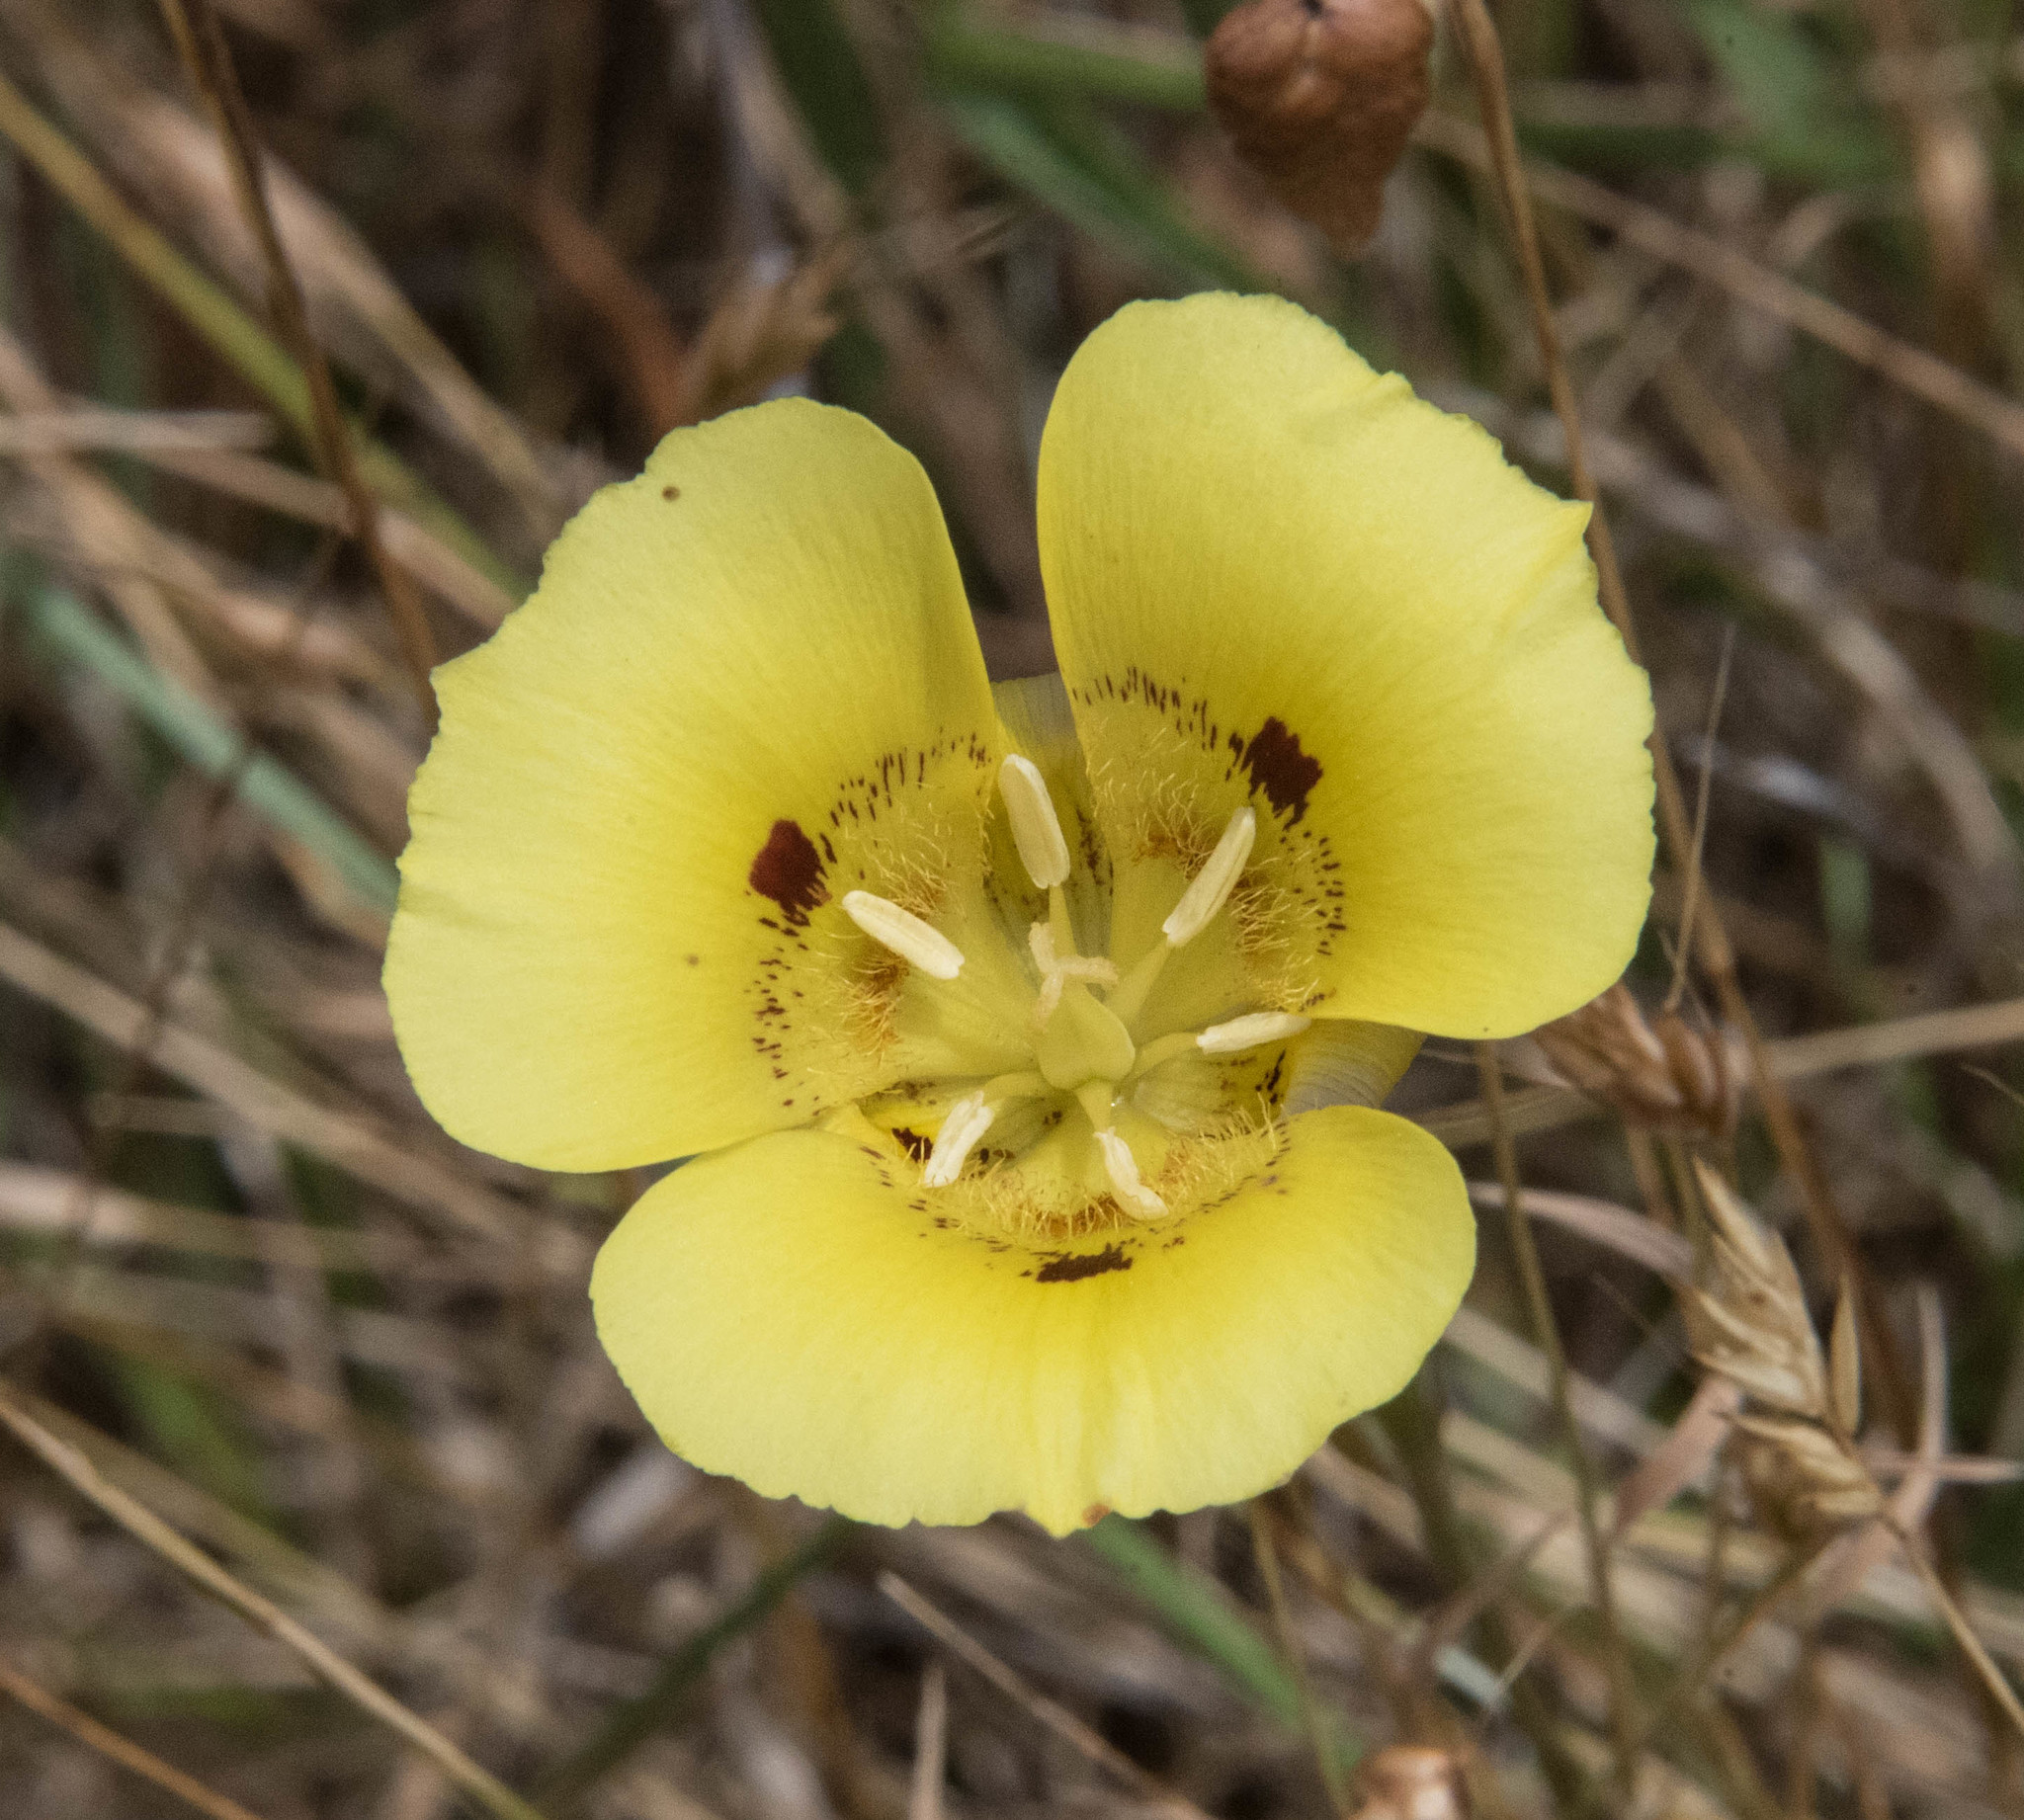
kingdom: Plantae
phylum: Tracheophyta
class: Liliopsida
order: Liliales
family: Liliaceae
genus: Calochortus
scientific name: Calochortus luteus
